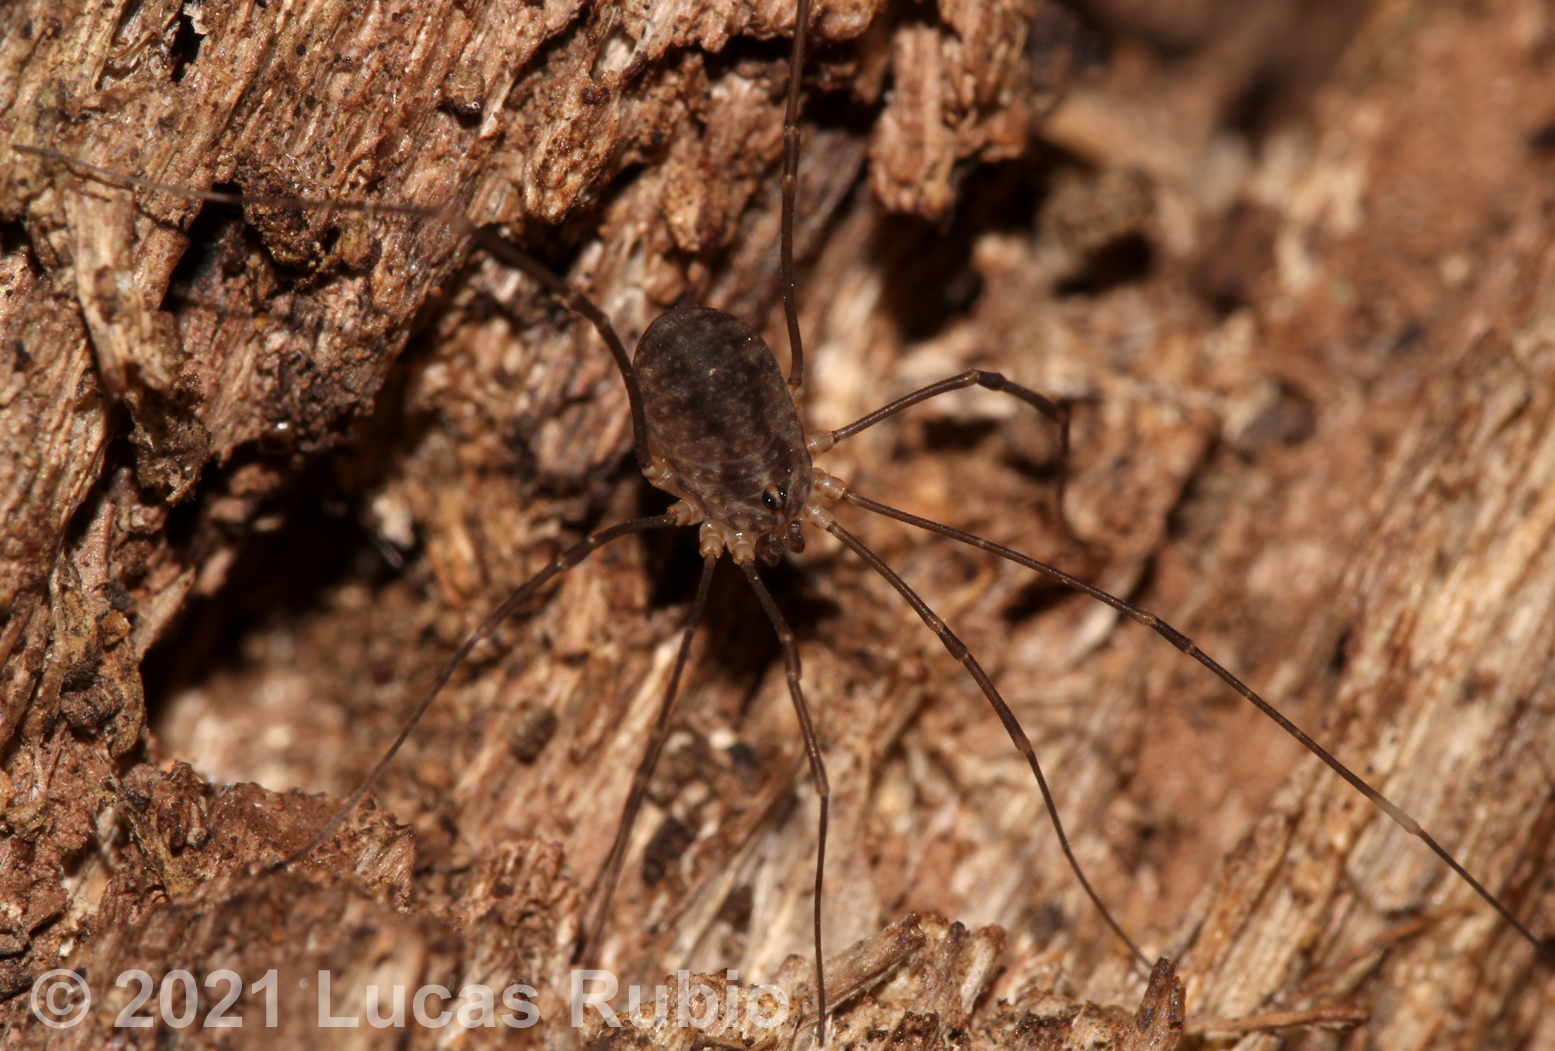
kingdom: Animalia
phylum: Arthropoda
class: Arachnida
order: Opiliones
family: Sclerosomatidae
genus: Holmbergiana
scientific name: Holmbergiana weyenberghii
